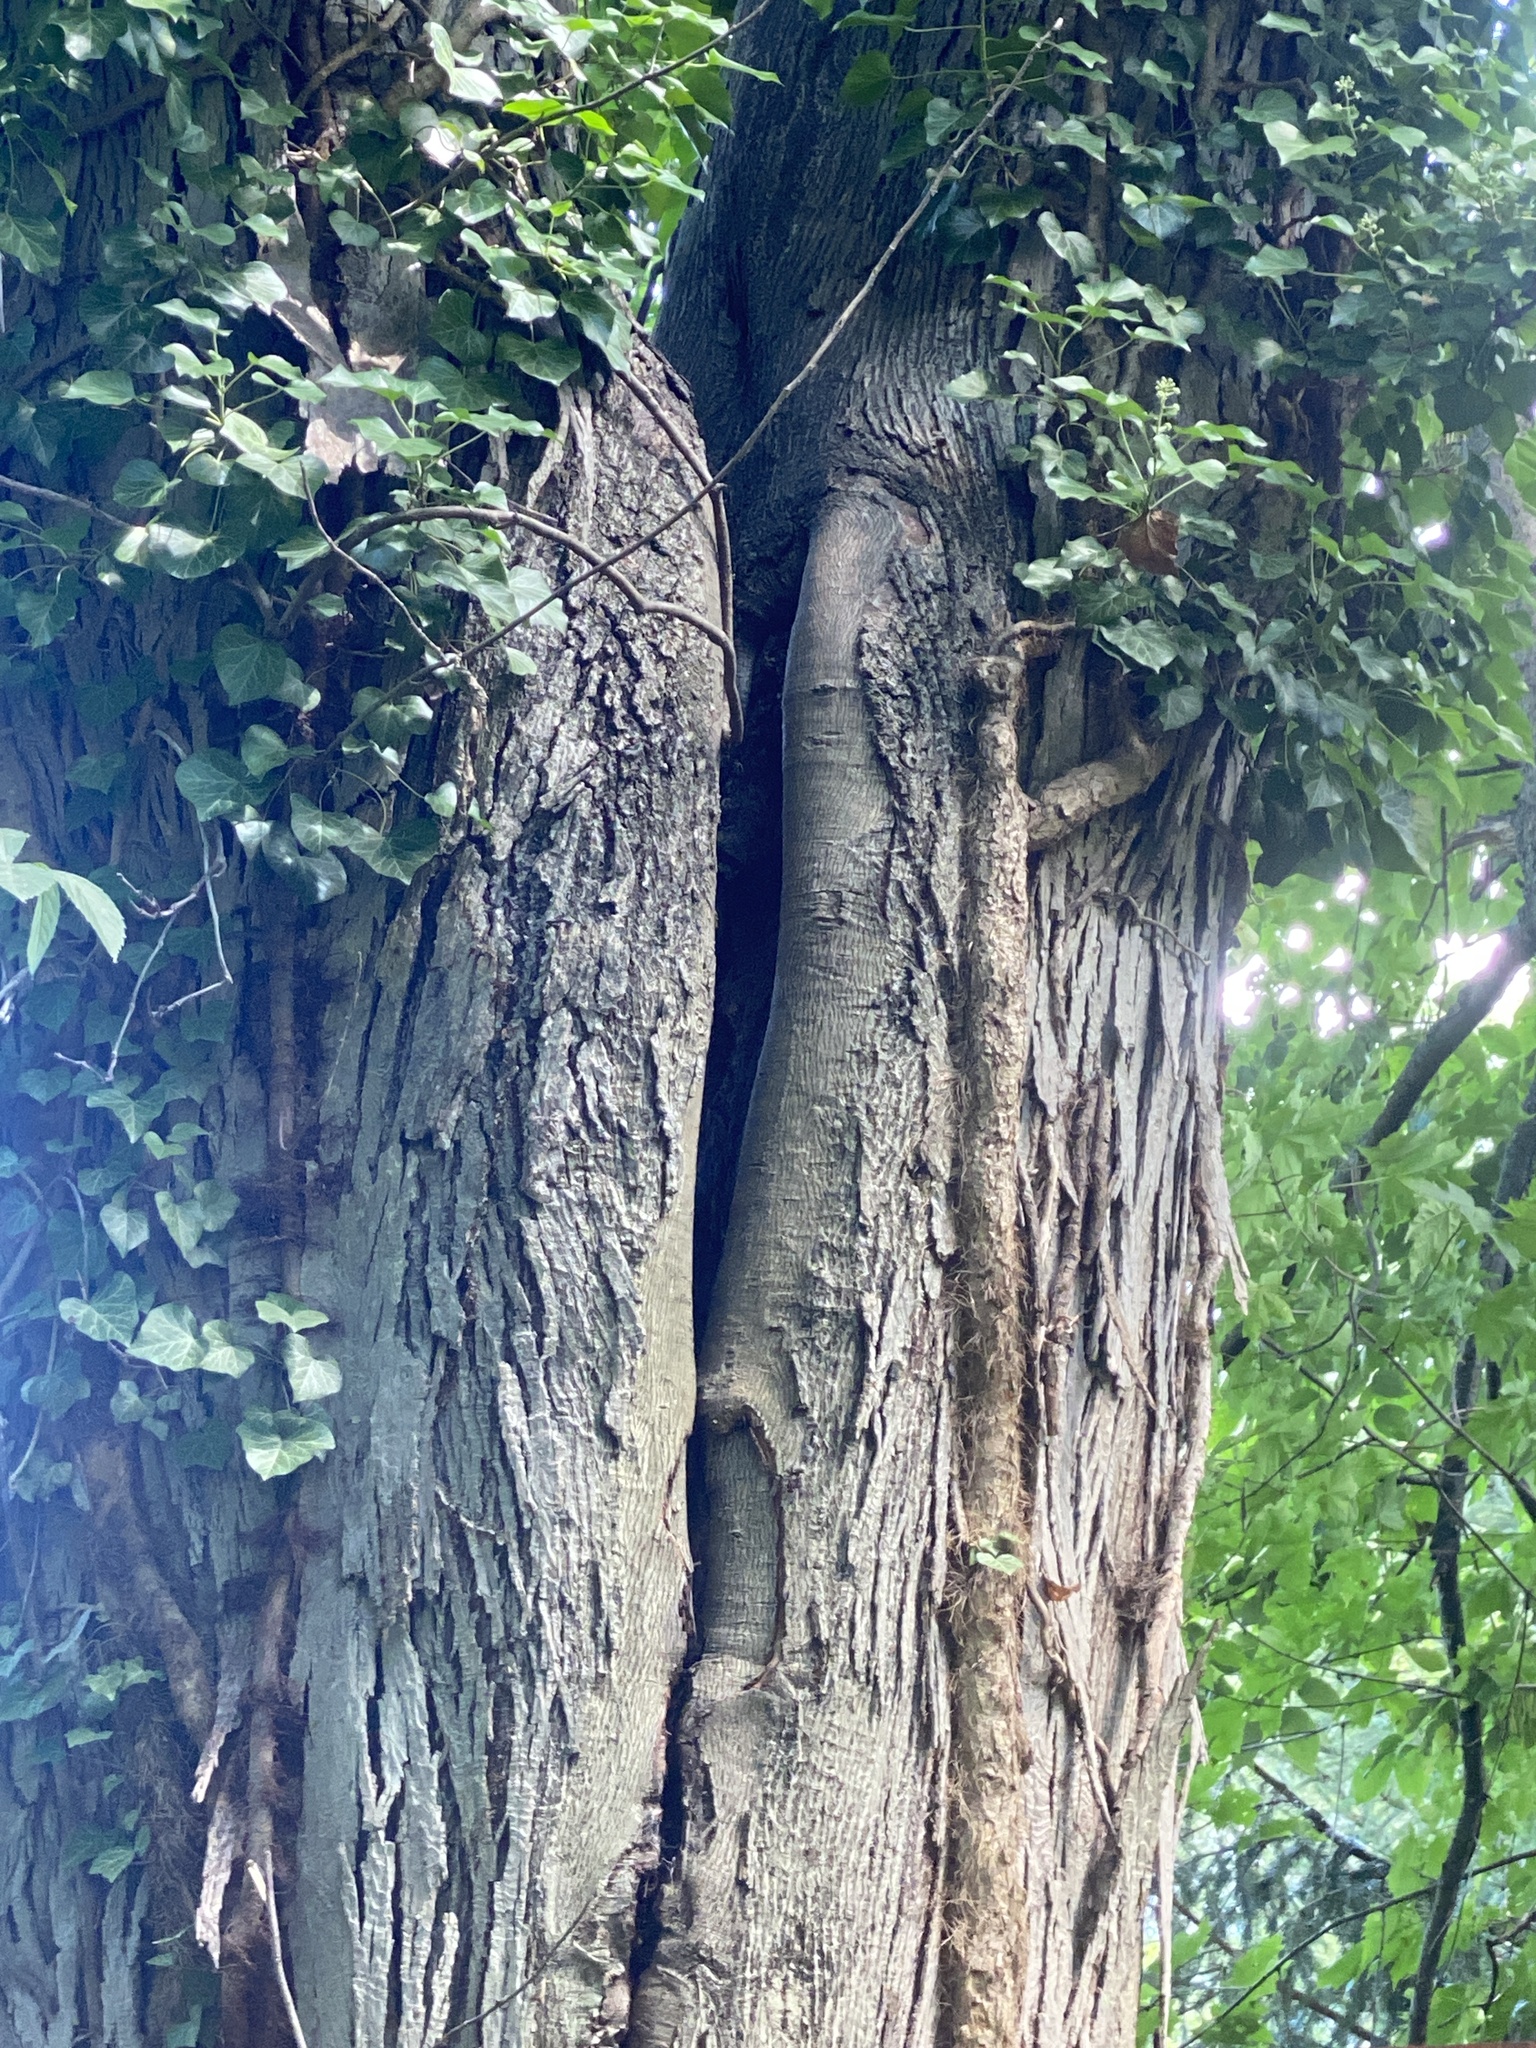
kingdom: Plantae
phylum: Tracheophyta
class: Magnoliopsida
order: Fagales
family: Juglandaceae
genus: Carya
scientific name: Carya ovata
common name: Shagbark hickory
